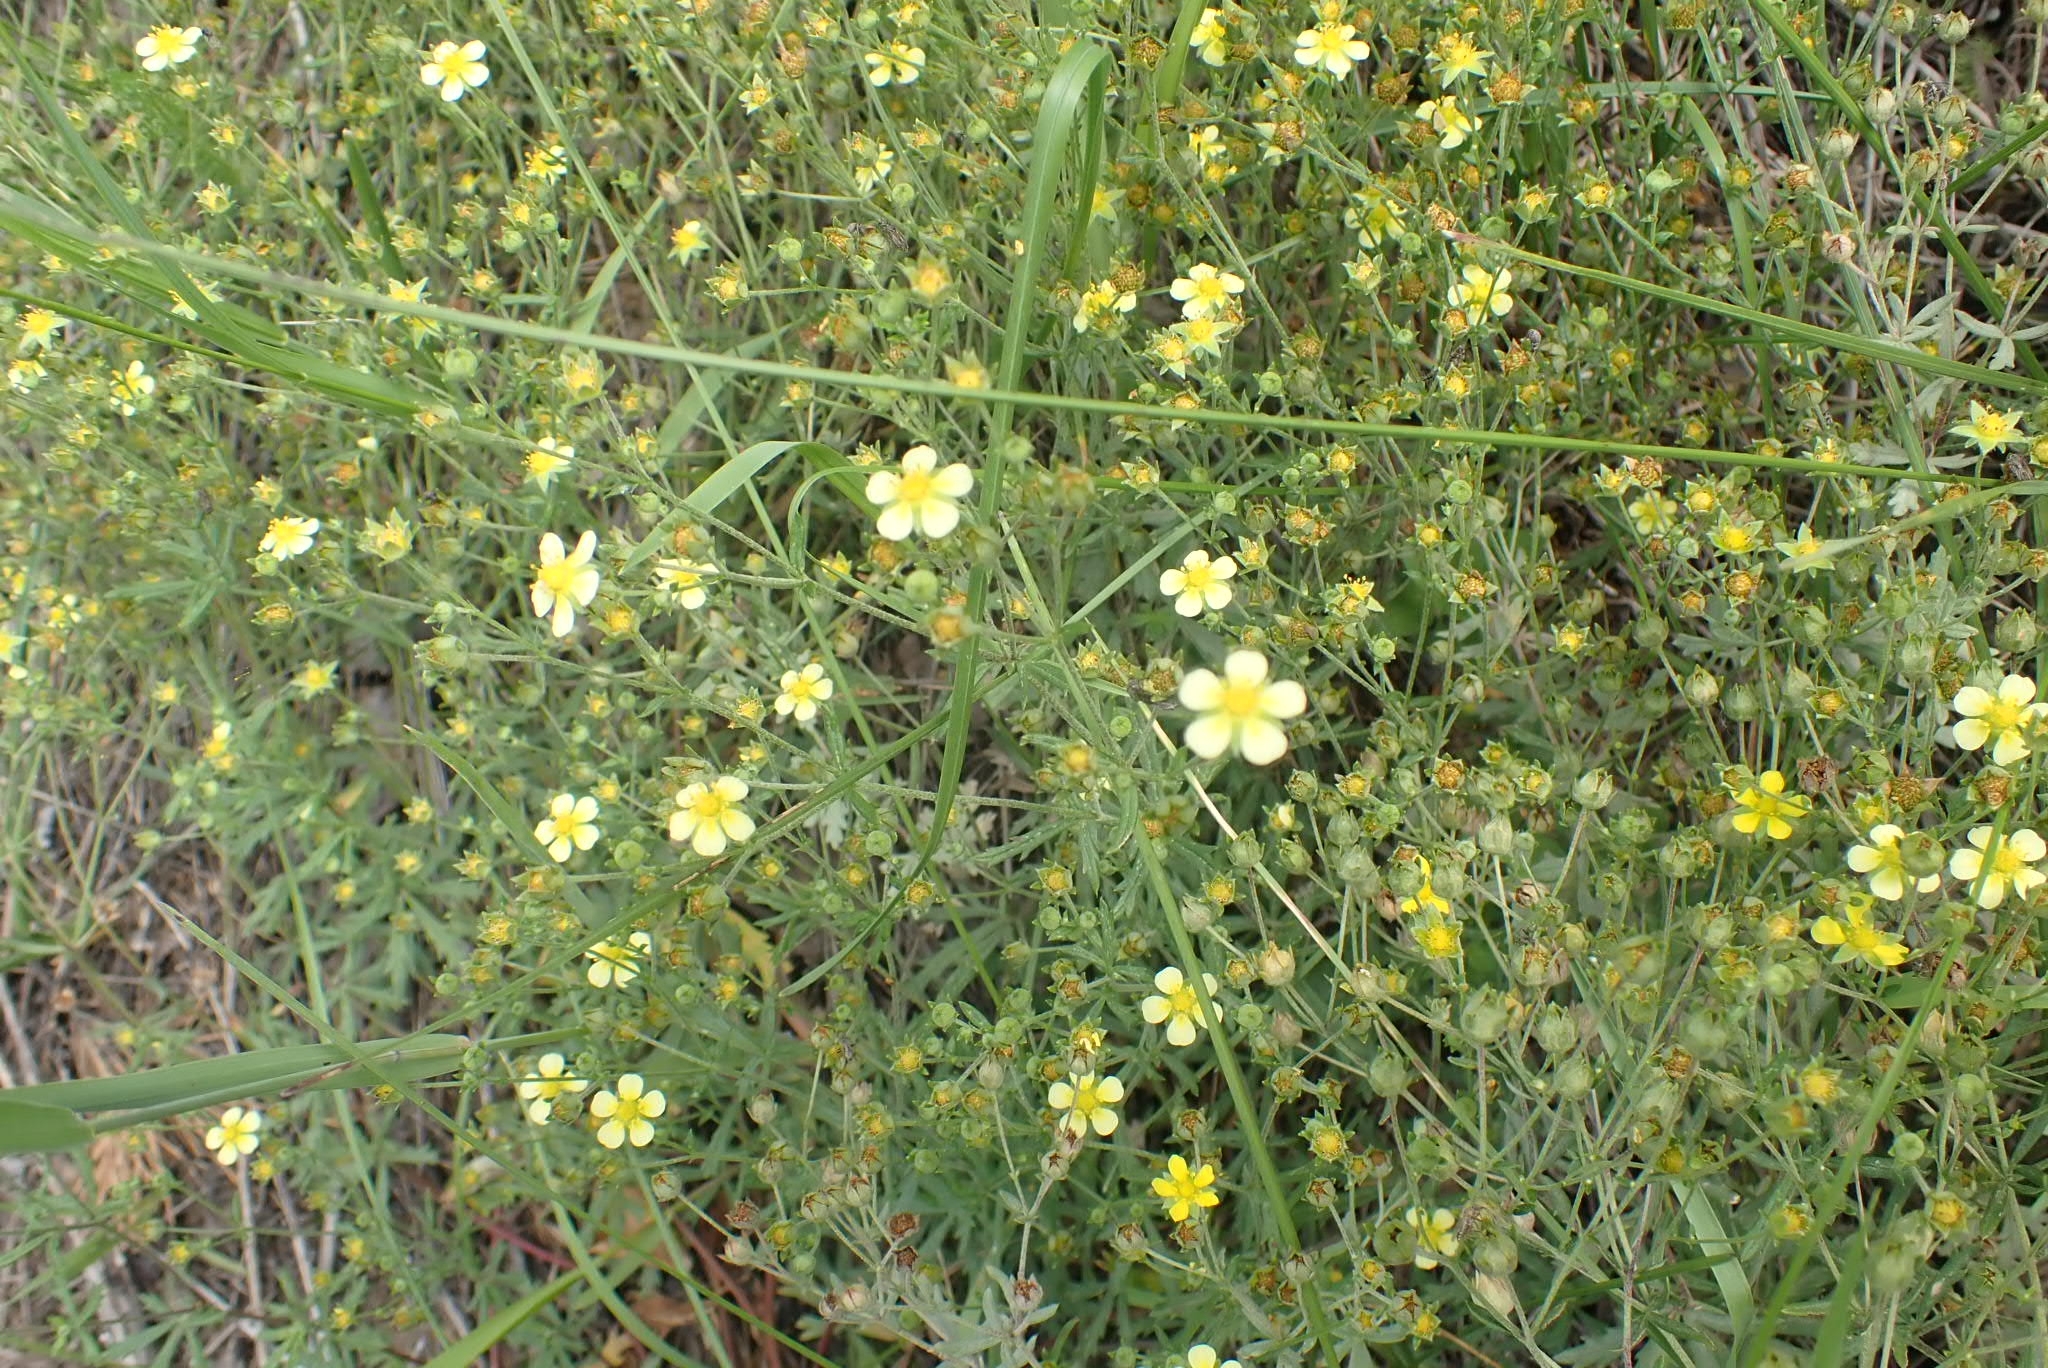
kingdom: Plantae
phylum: Tracheophyta
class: Magnoliopsida
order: Rosales
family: Rosaceae
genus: Potentilla
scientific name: Potentilla argentea
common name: Hoary cinquefoil
